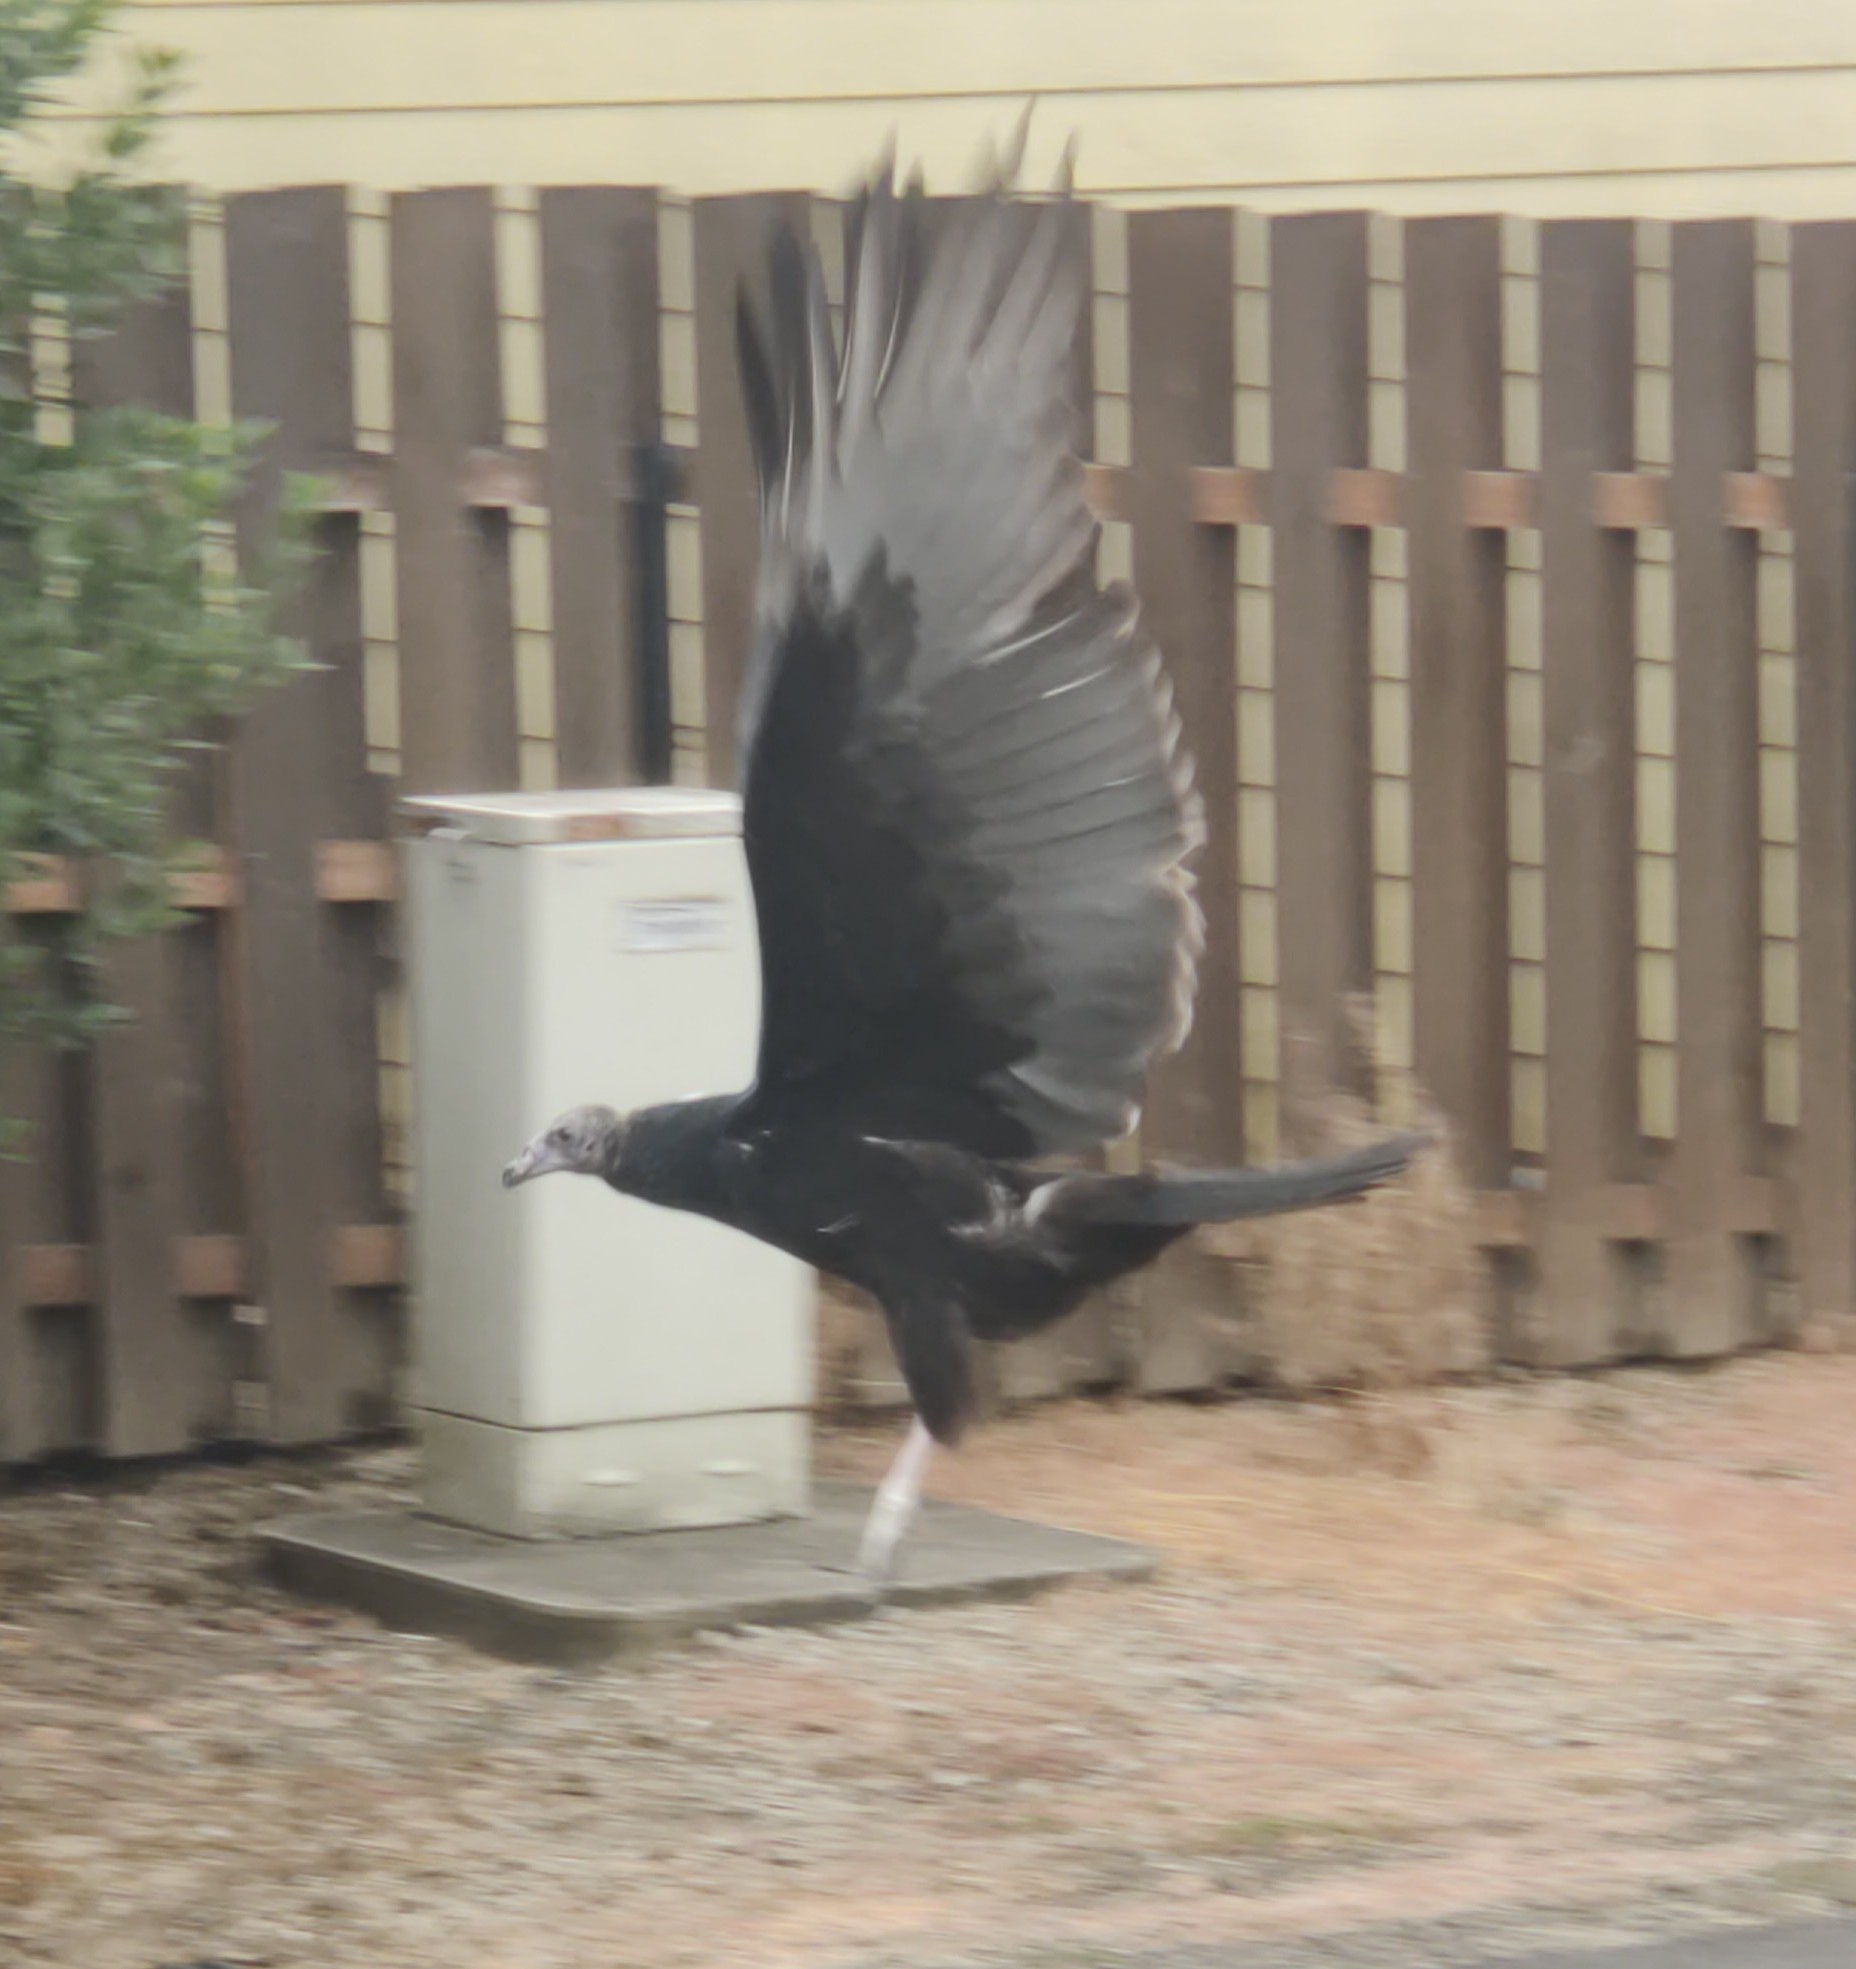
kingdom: Animalia
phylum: Chordata
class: Aves
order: Accipitriformes
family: Cathartidae
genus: Cathartes
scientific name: Cathartes aura
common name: Turkey vulture
